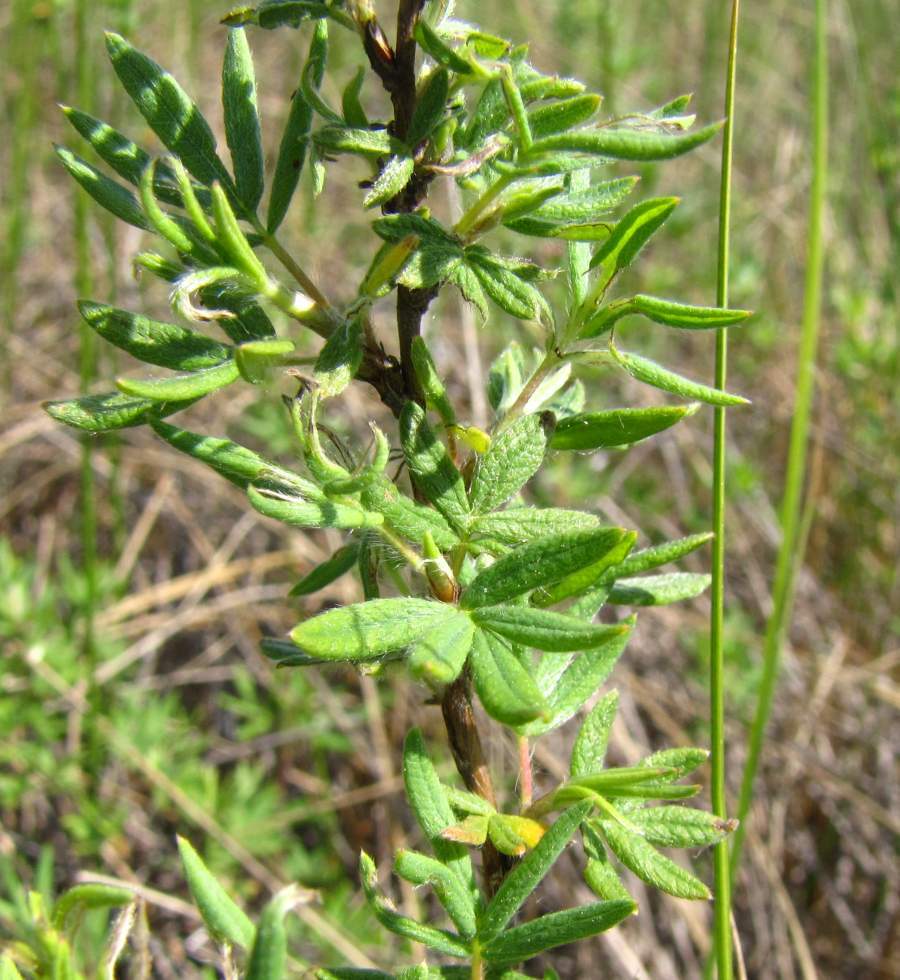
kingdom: Plantae
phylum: Tracheophyta
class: Magnoliopsida
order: Rosales
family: Rosaceae
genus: Dasiphora
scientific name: Dasiphora fruticosa
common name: Shrubby cinquefoil
